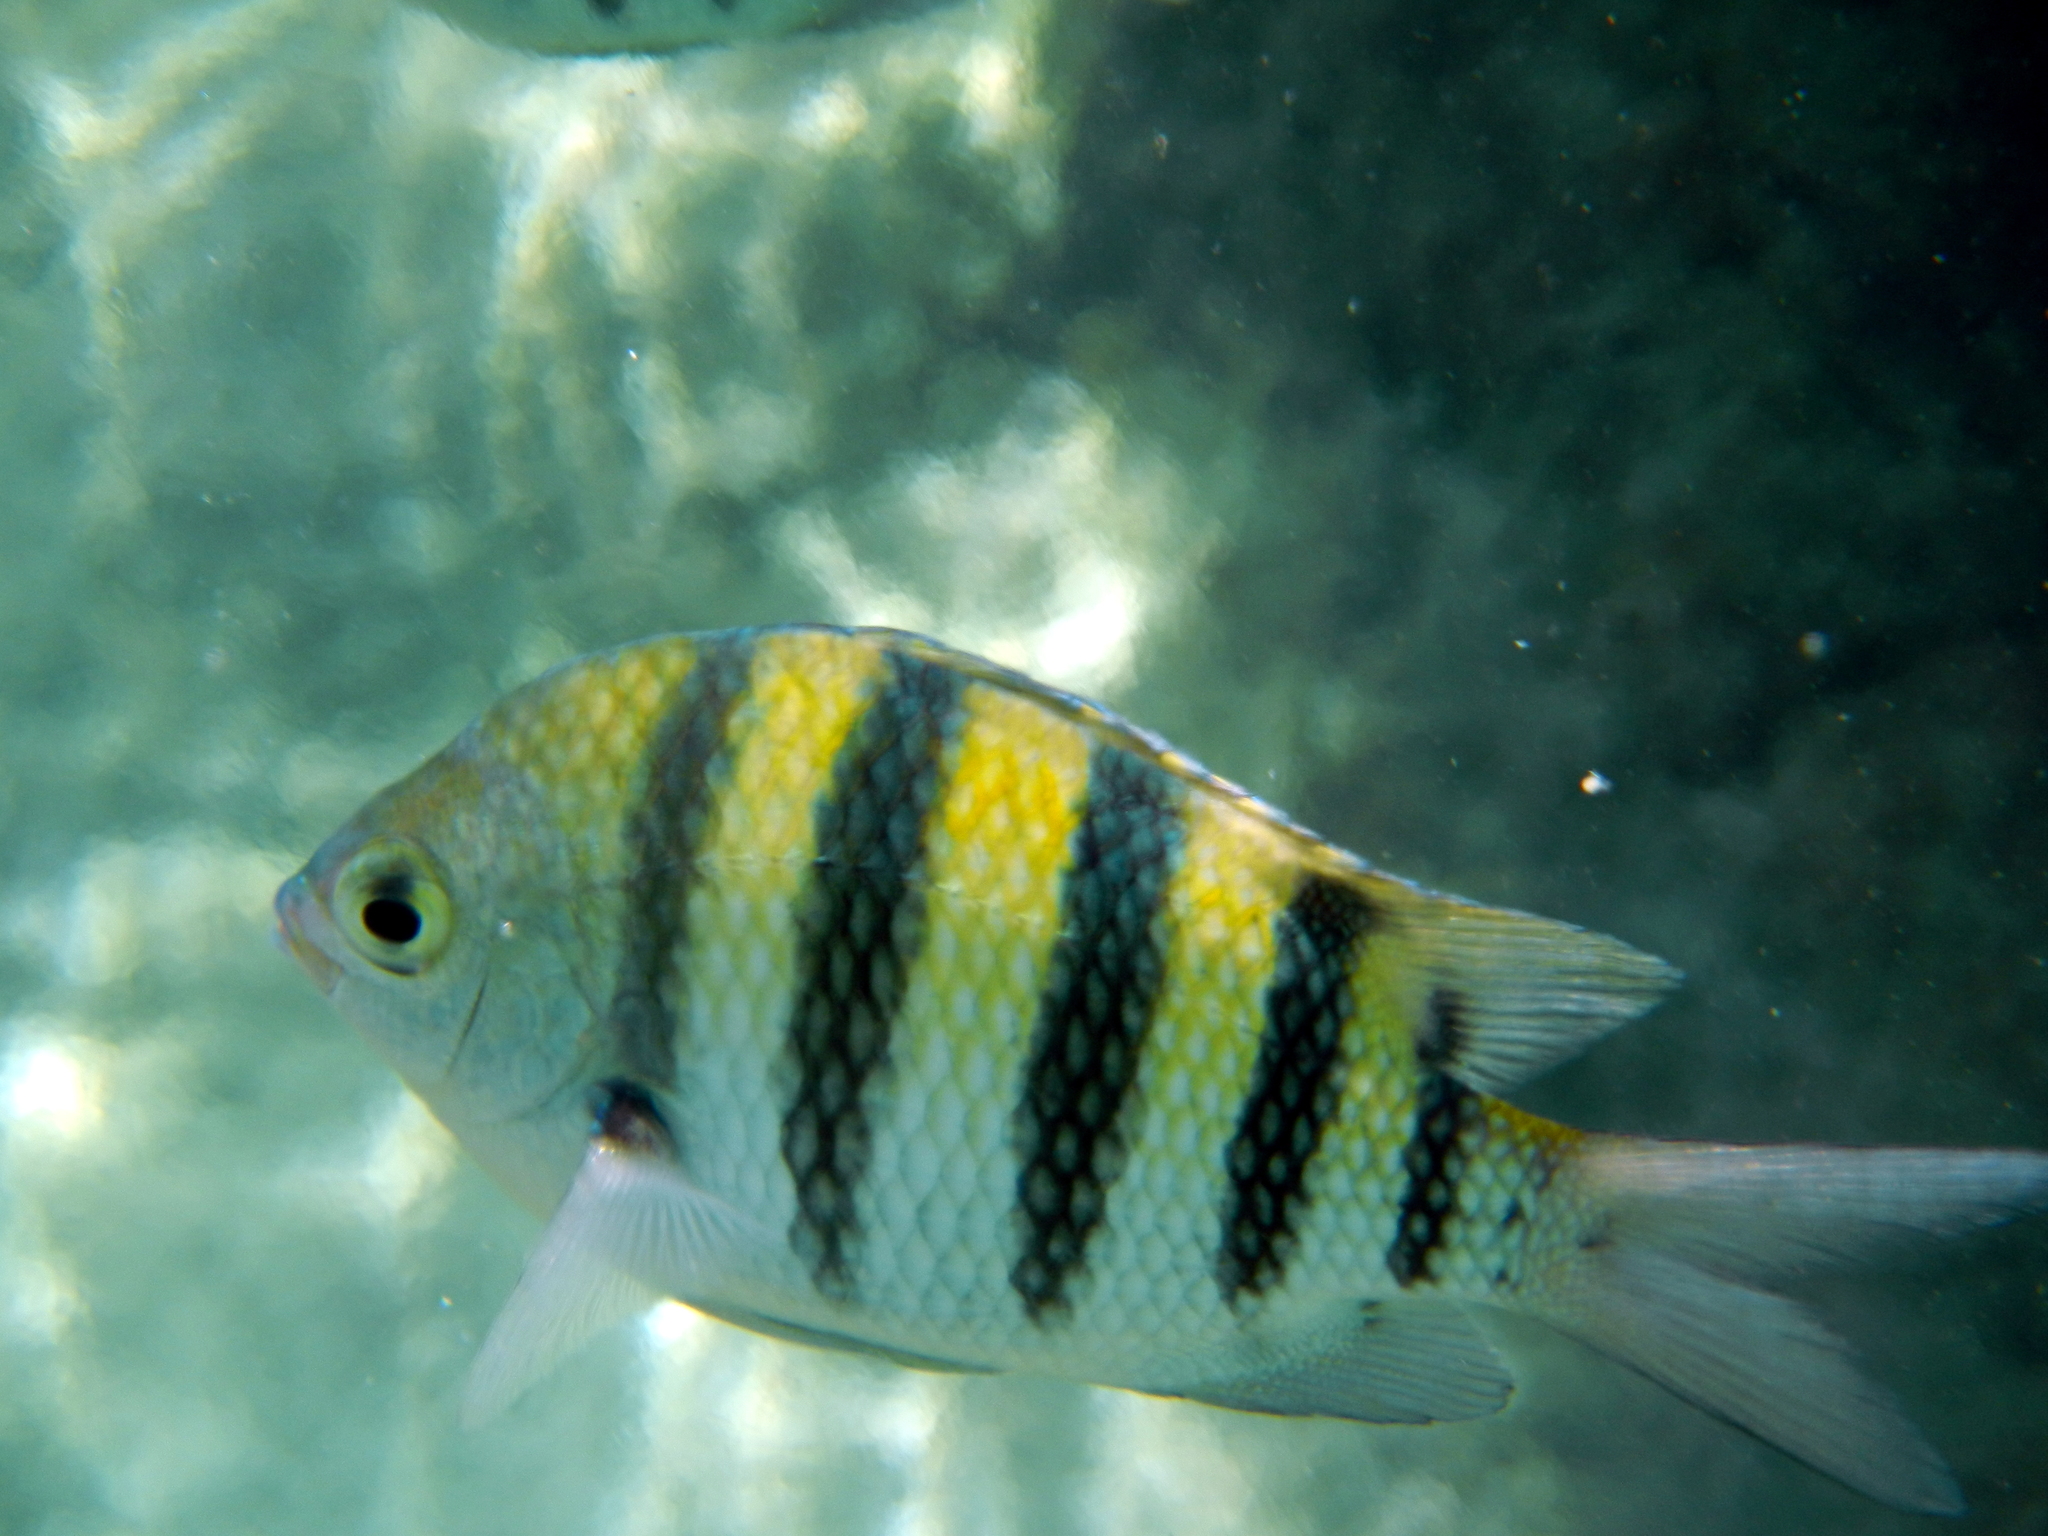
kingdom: Animalia
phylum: Chordata
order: Perciformes
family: Pomacentridae
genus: Abudefduf
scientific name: Abudefduf saxatilis
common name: Sergeant major
